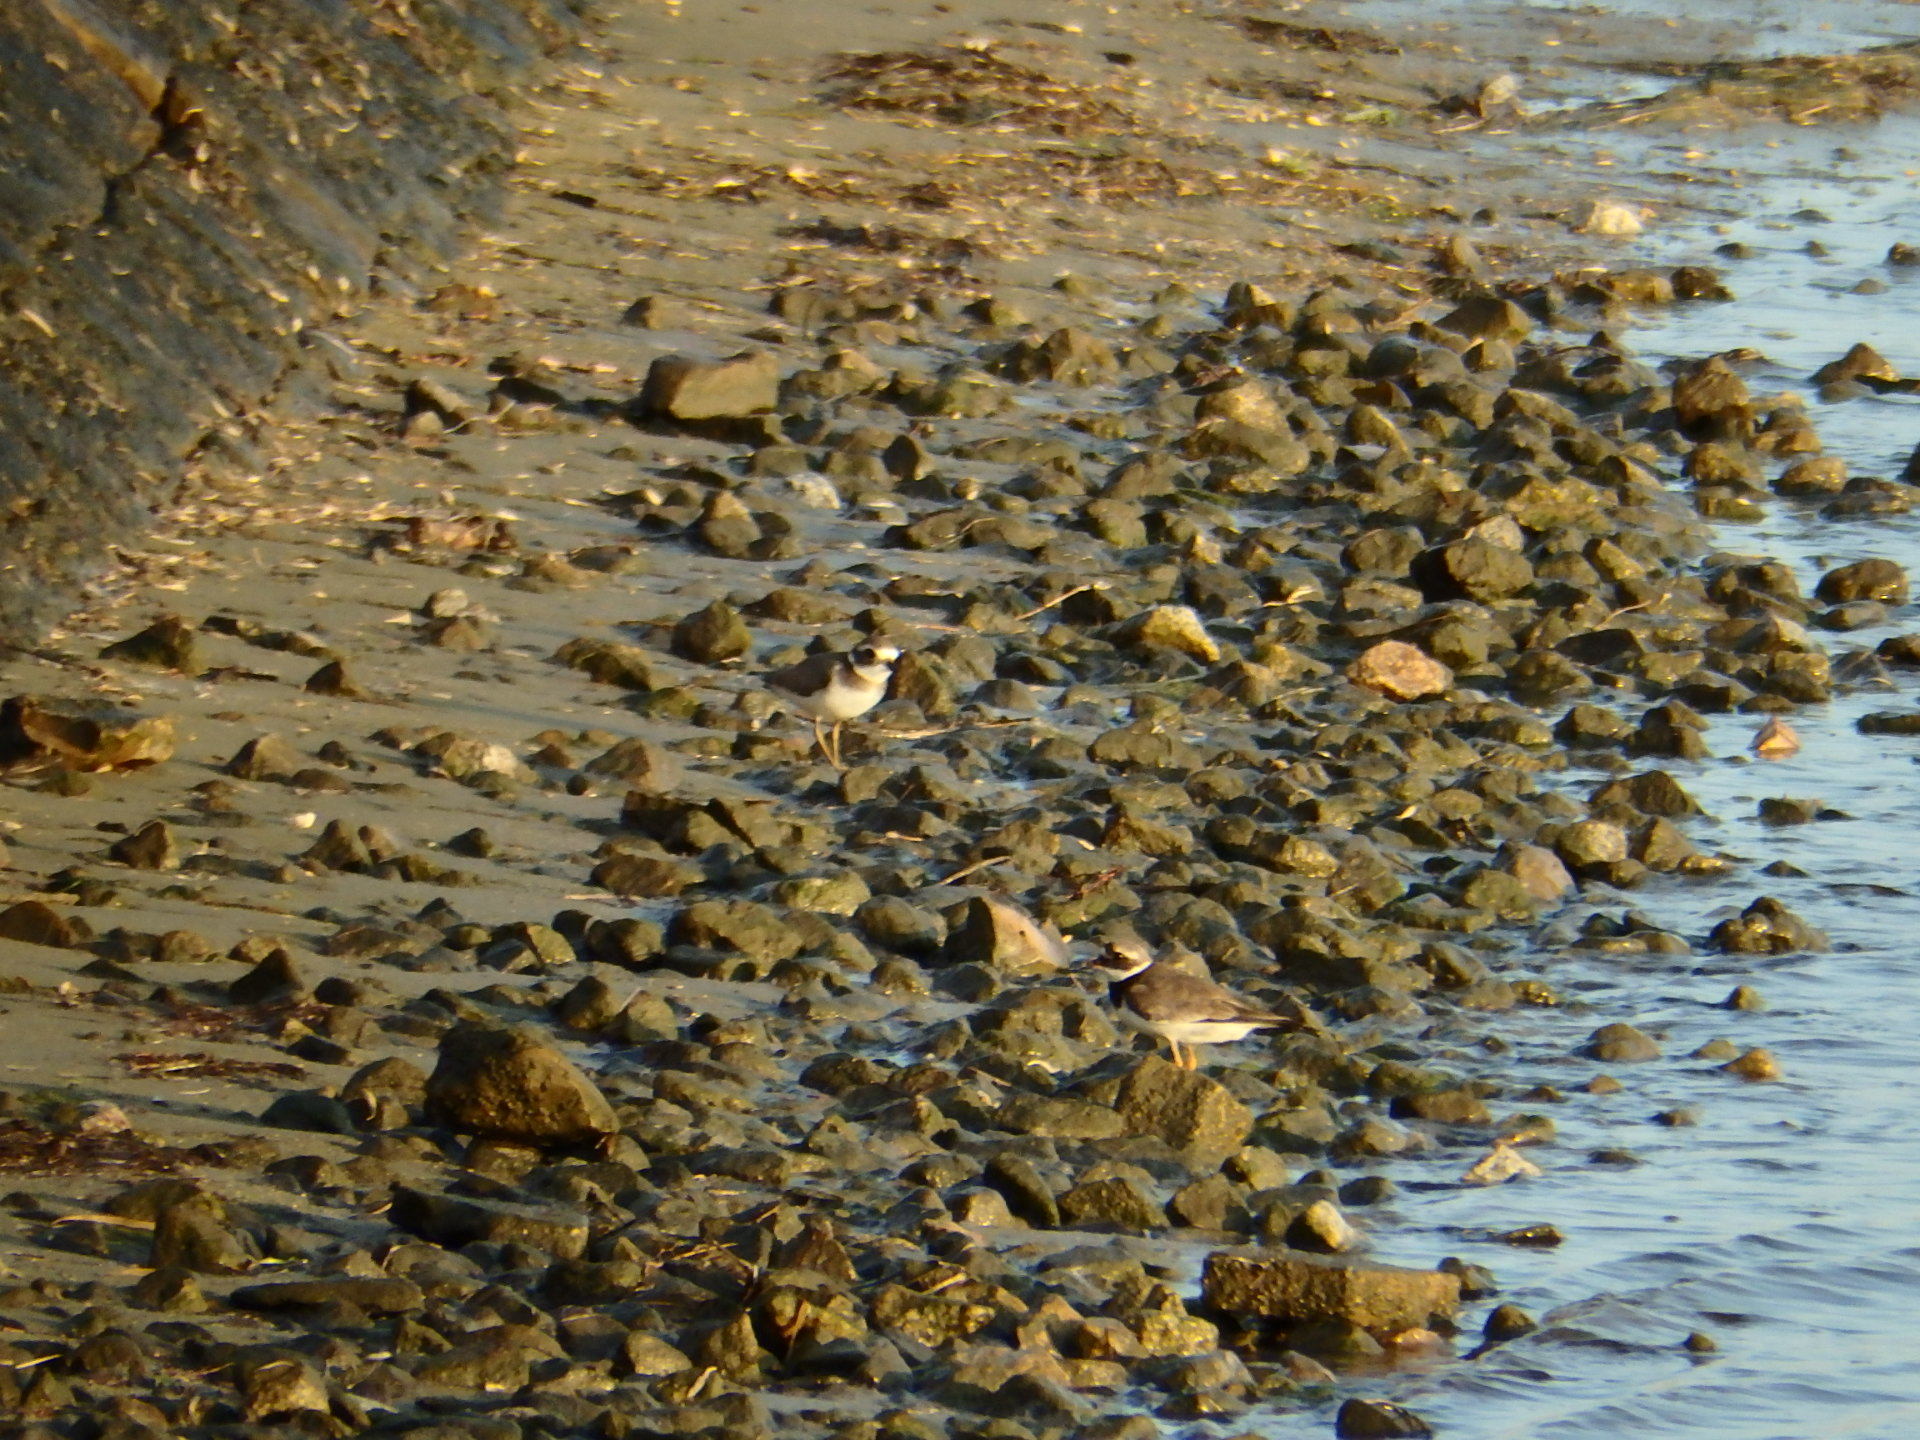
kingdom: Animalia
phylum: Chordata
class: Aves
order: Charadriiformes
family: Charadriidae
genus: Charadrius
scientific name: Charadrius hiaticula
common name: Common ringed plover
